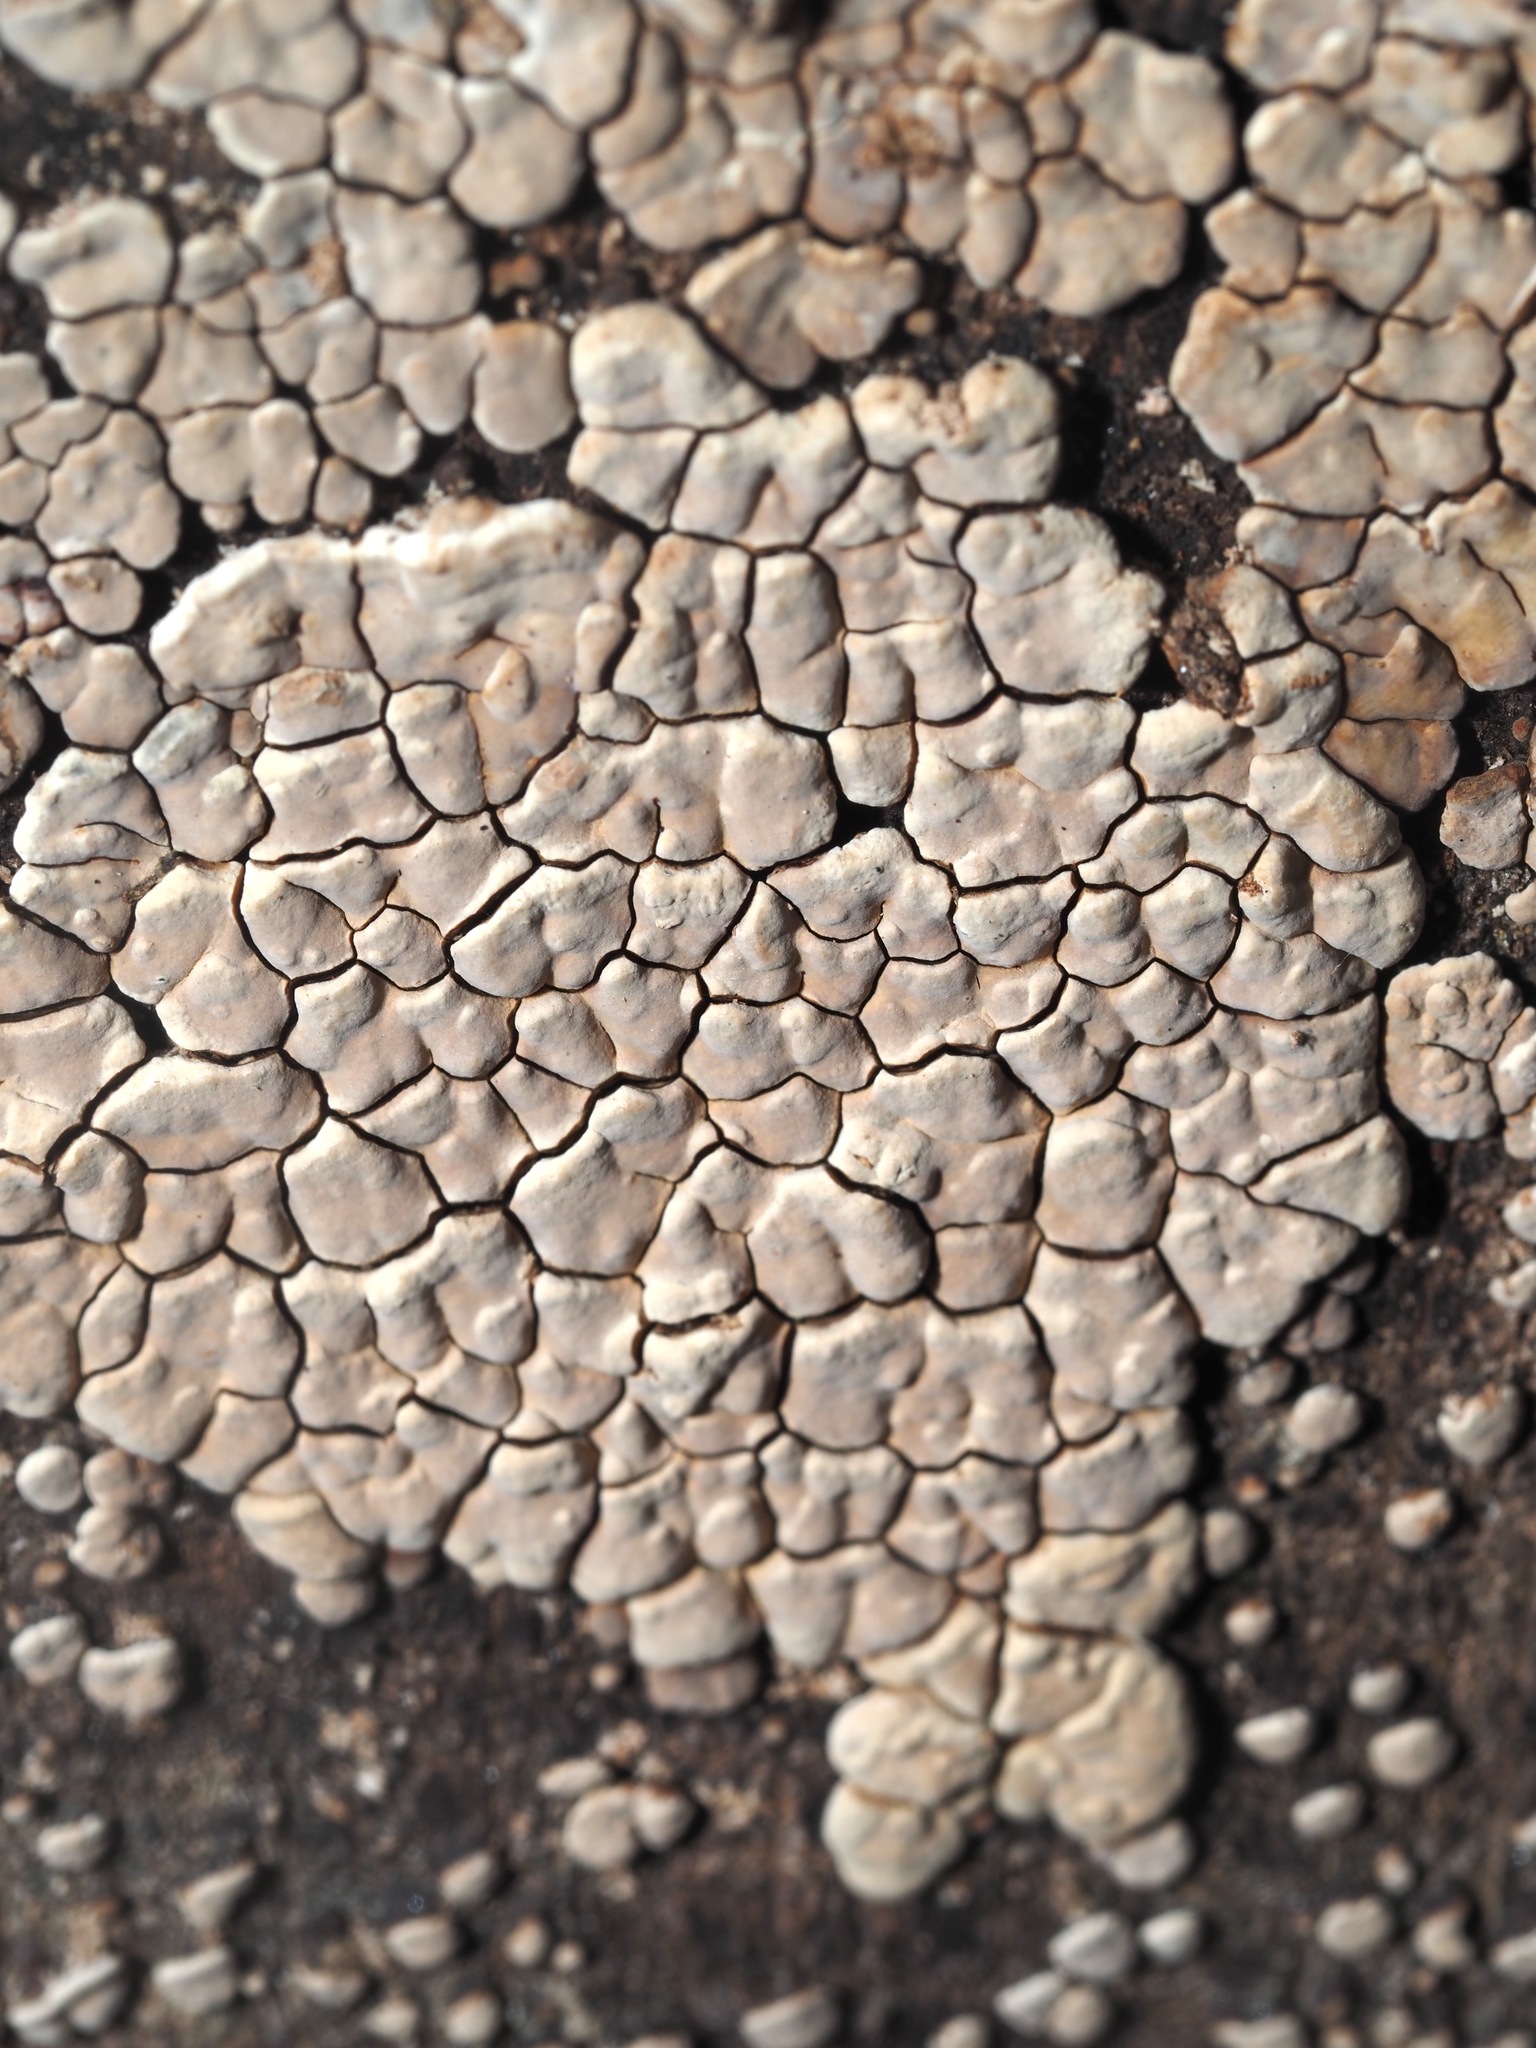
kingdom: Fungi
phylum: Basidiomycota
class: Agaricomycetes
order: Russulales
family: Stereaceae
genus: Xylobolus
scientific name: Xylobolus frustulatus
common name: Ceramic parchment
